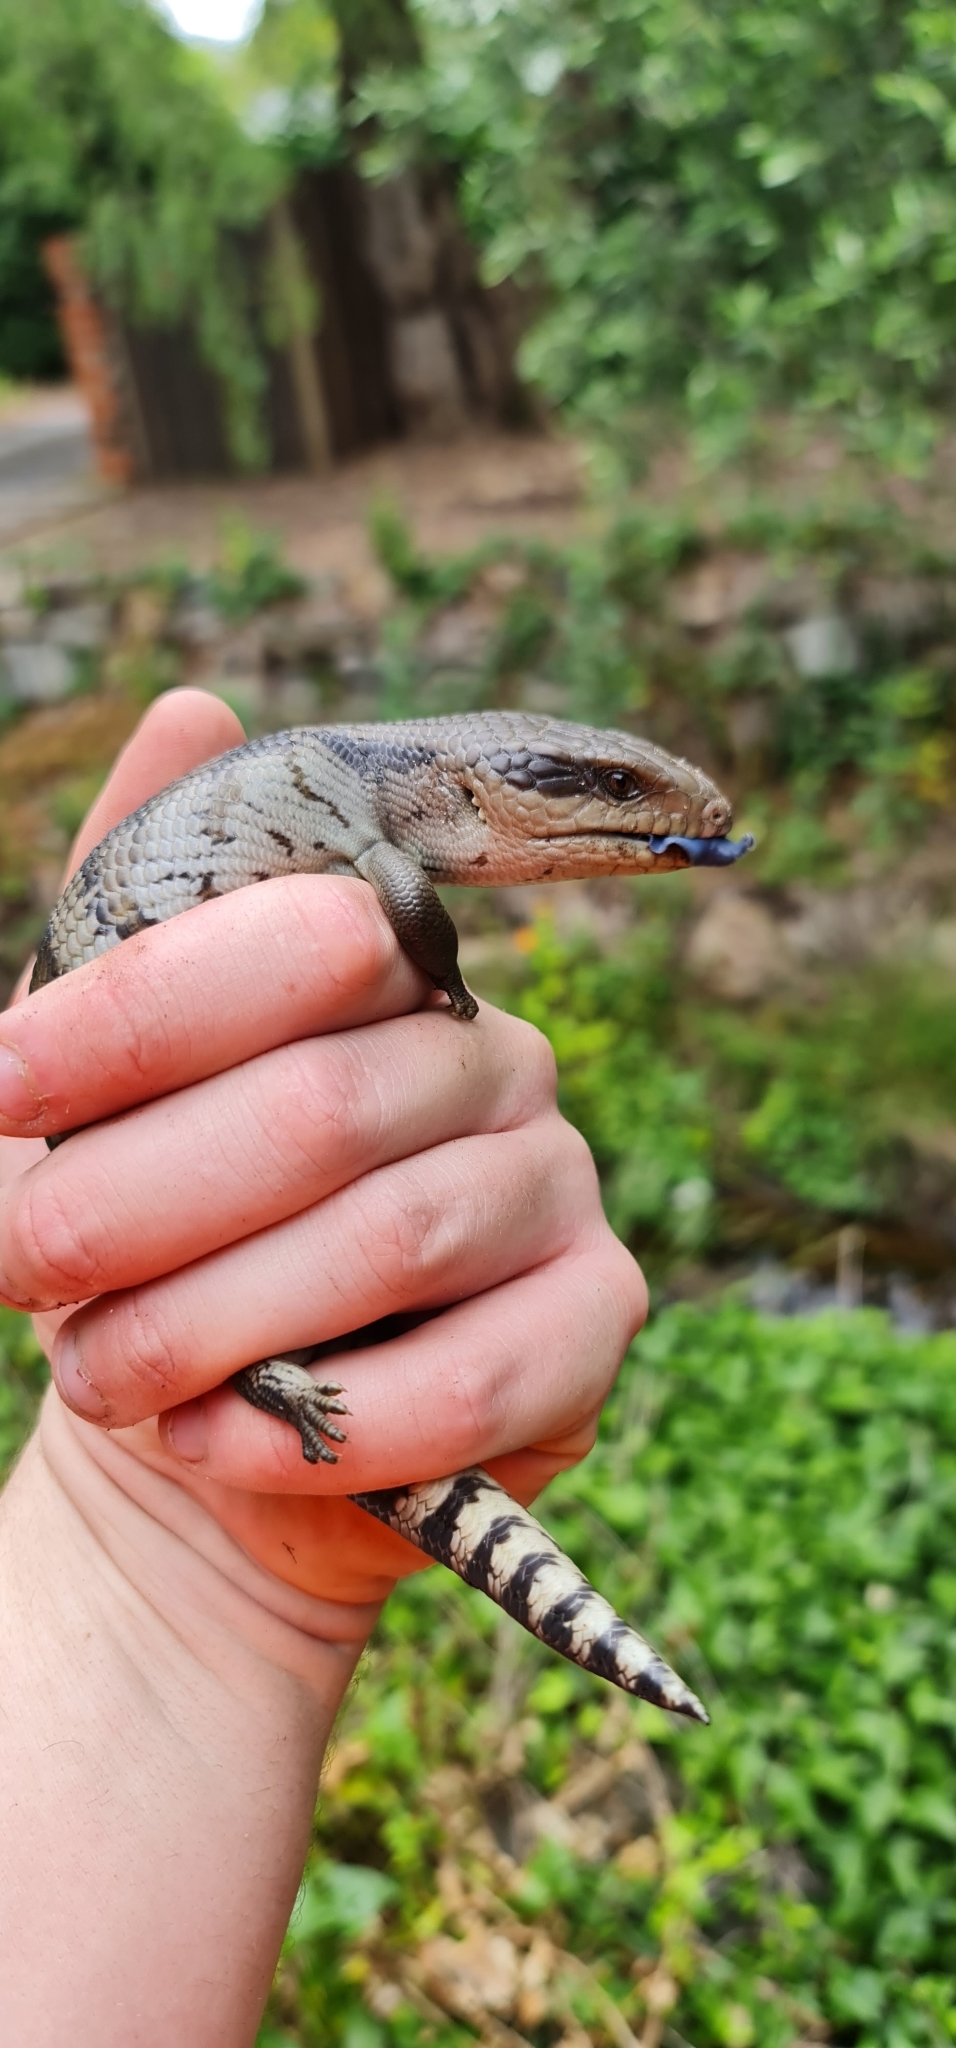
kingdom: Animalia
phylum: Chordata
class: Squamata
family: Scincidae
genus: Tiliqua
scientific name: Tiliqua scincoides
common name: Common bluetongue
